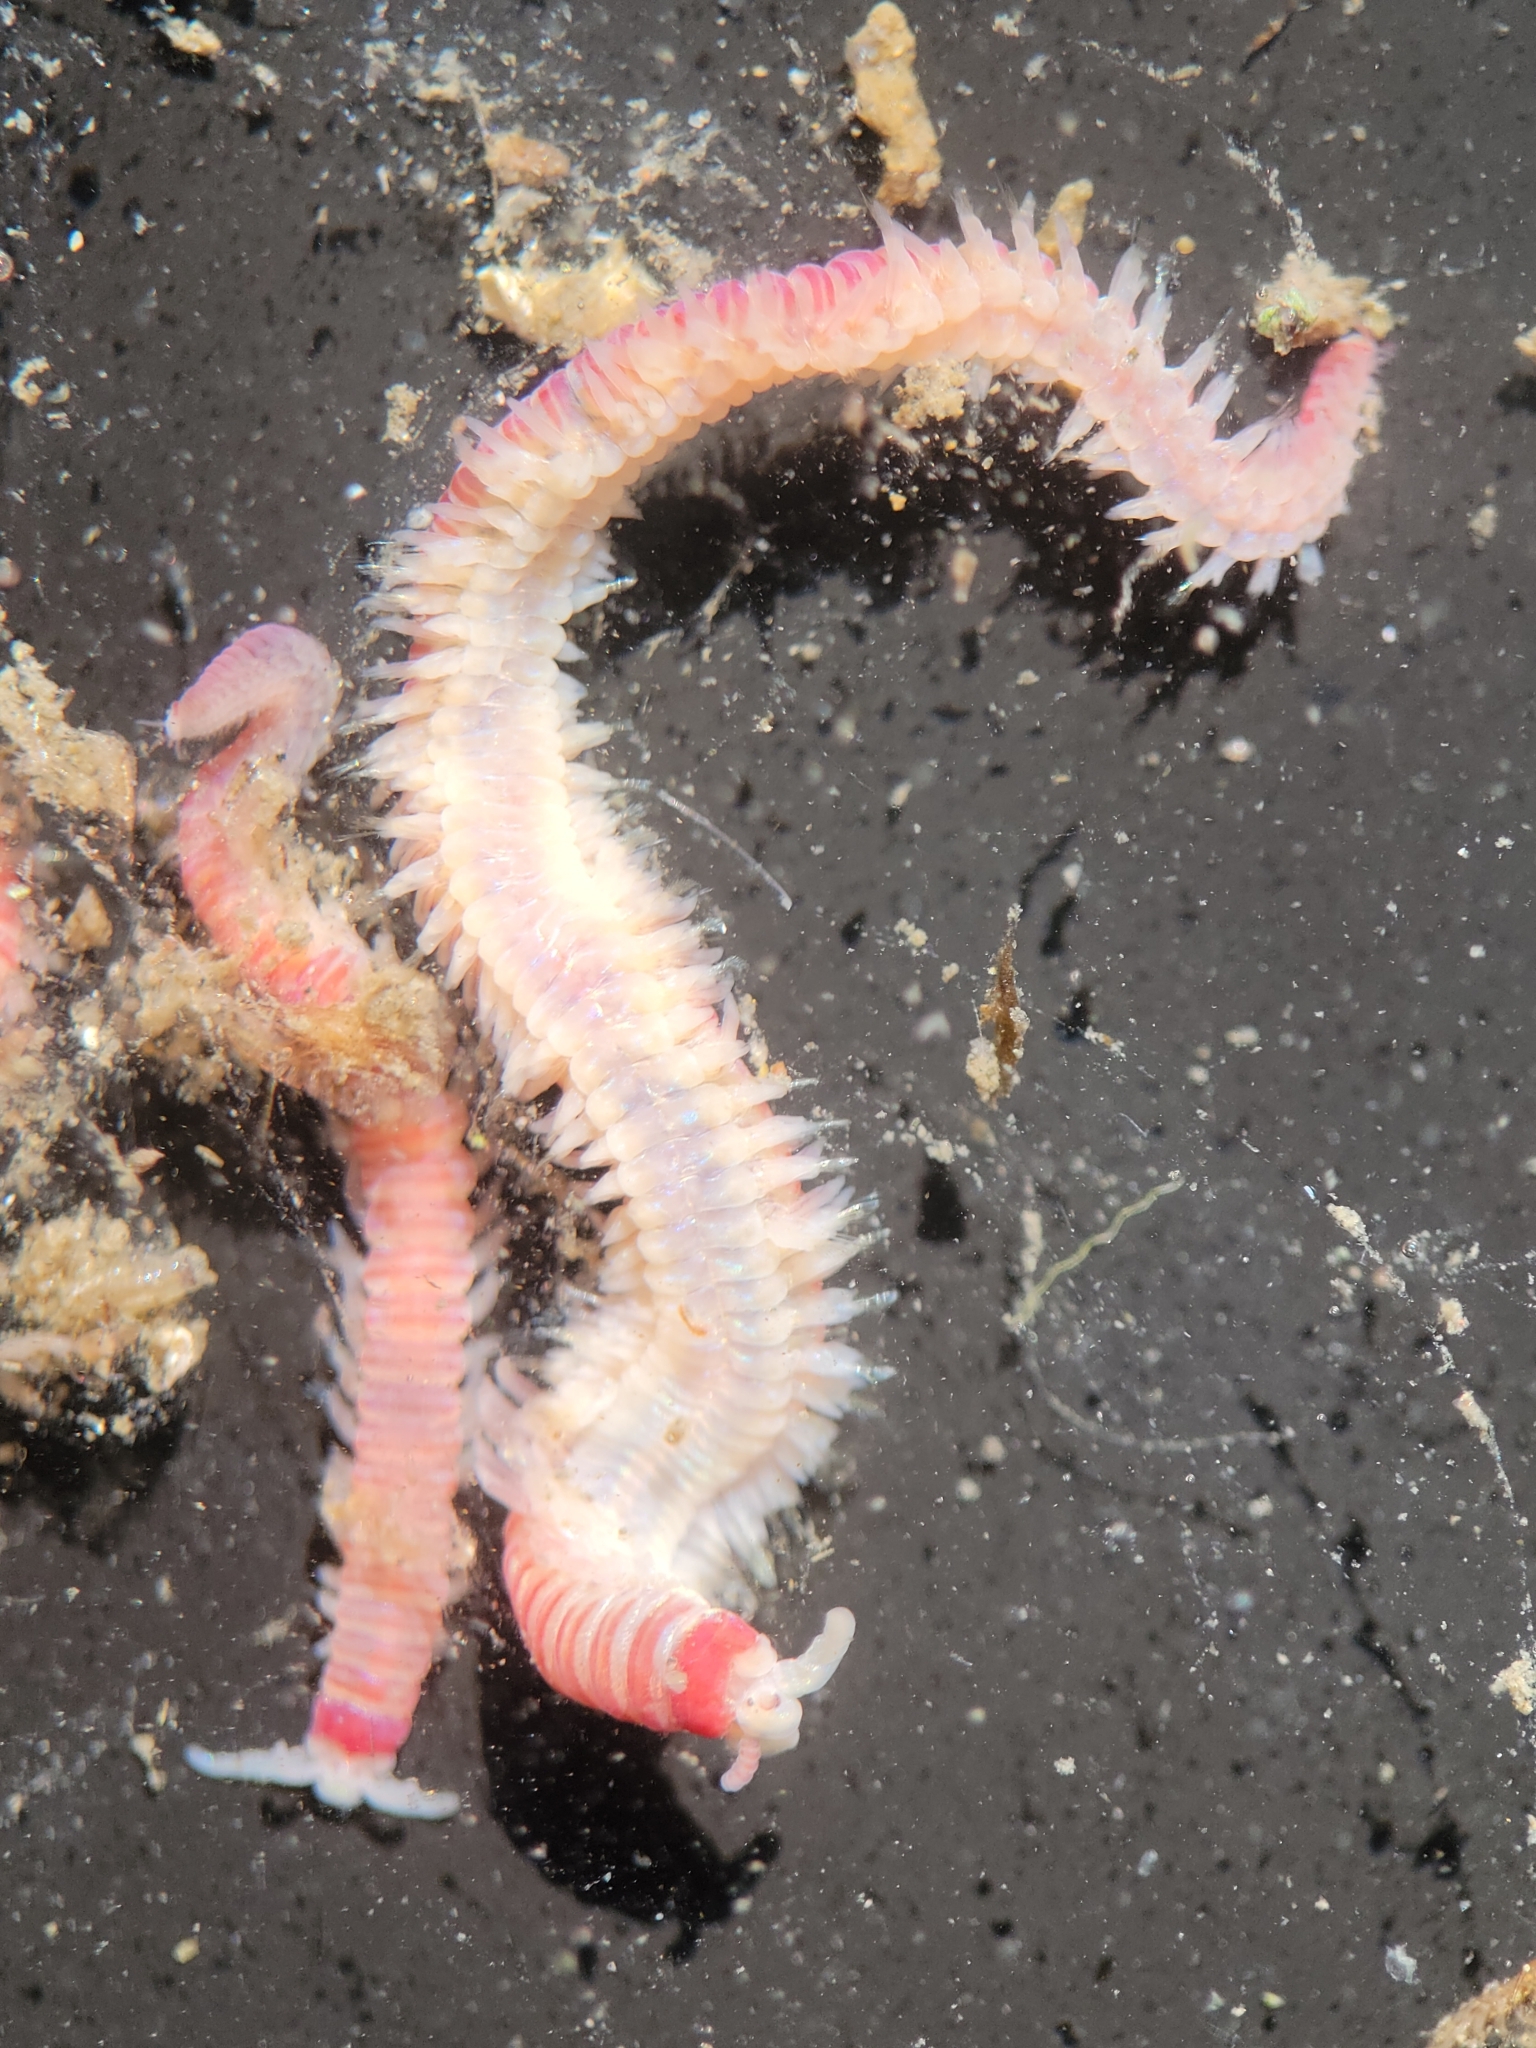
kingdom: Animalia
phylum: Annelida
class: Polychaeta
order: Eunicida
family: Dorvilleidae
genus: Dorvillea
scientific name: Dorvillea moniloceras
